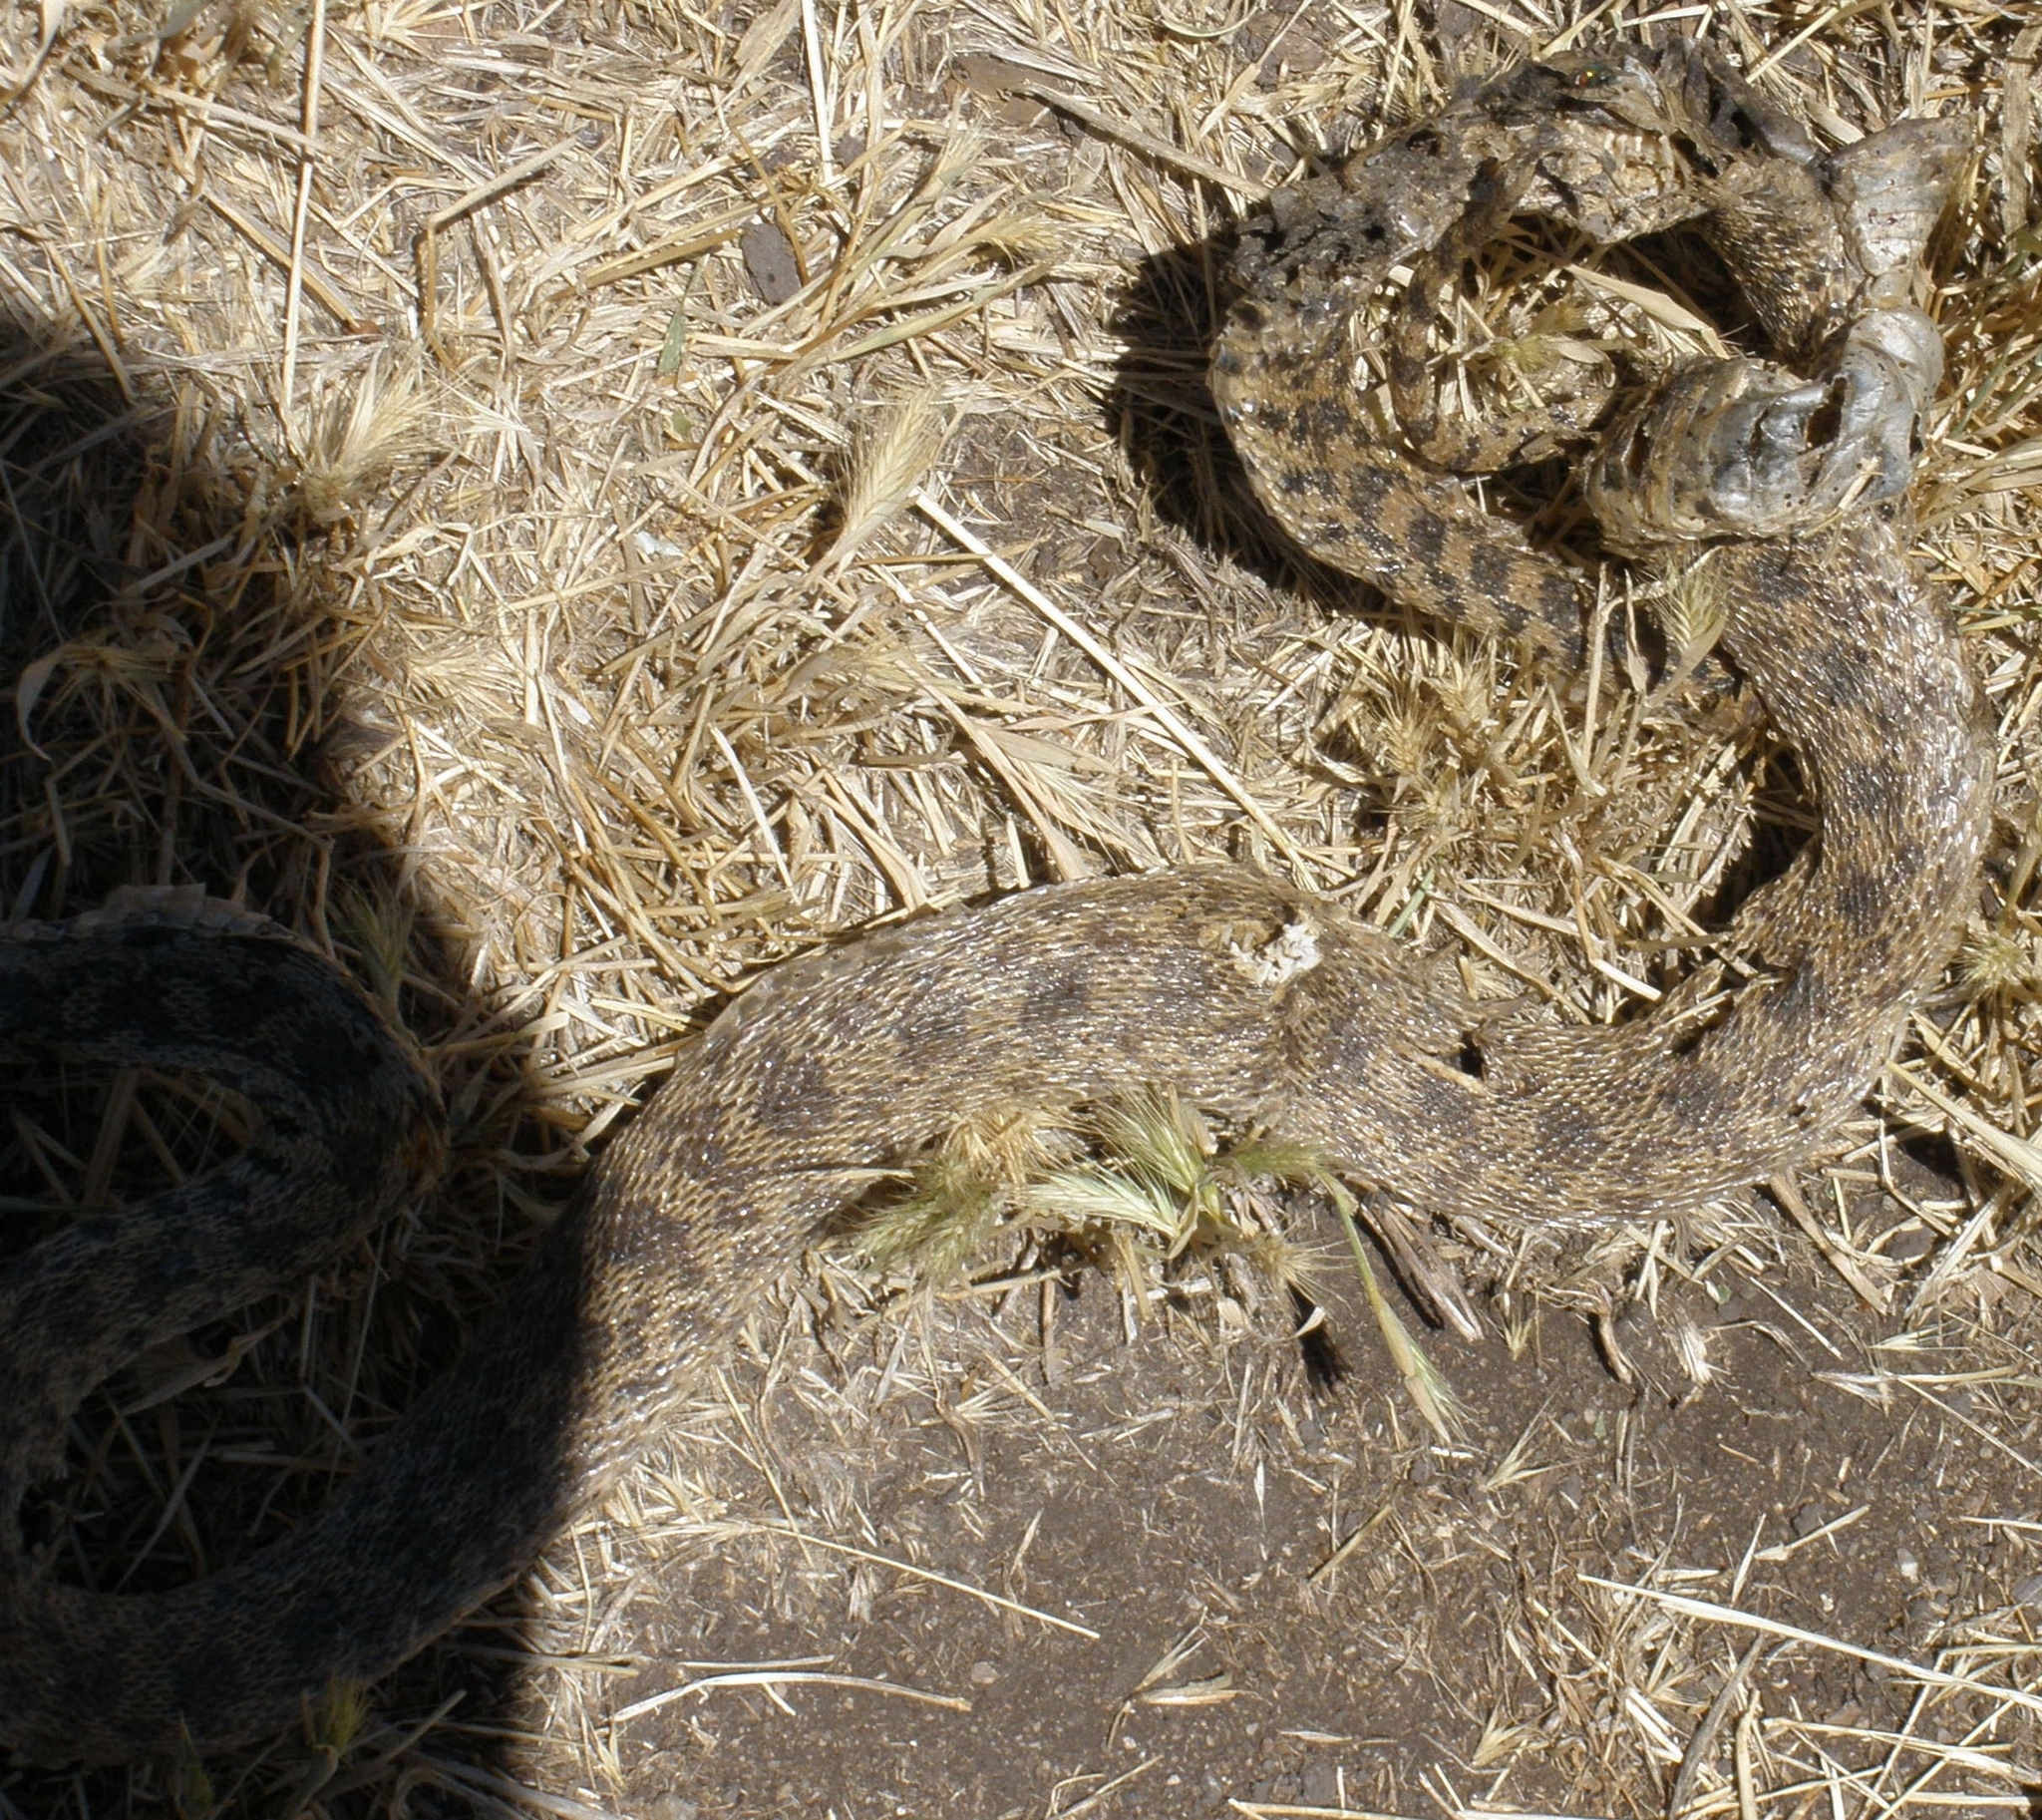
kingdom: Animalia
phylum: Chordata
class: Squamata
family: Colubridae
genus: Pituophis
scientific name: Pituophis catenifer
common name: Gopher snake
